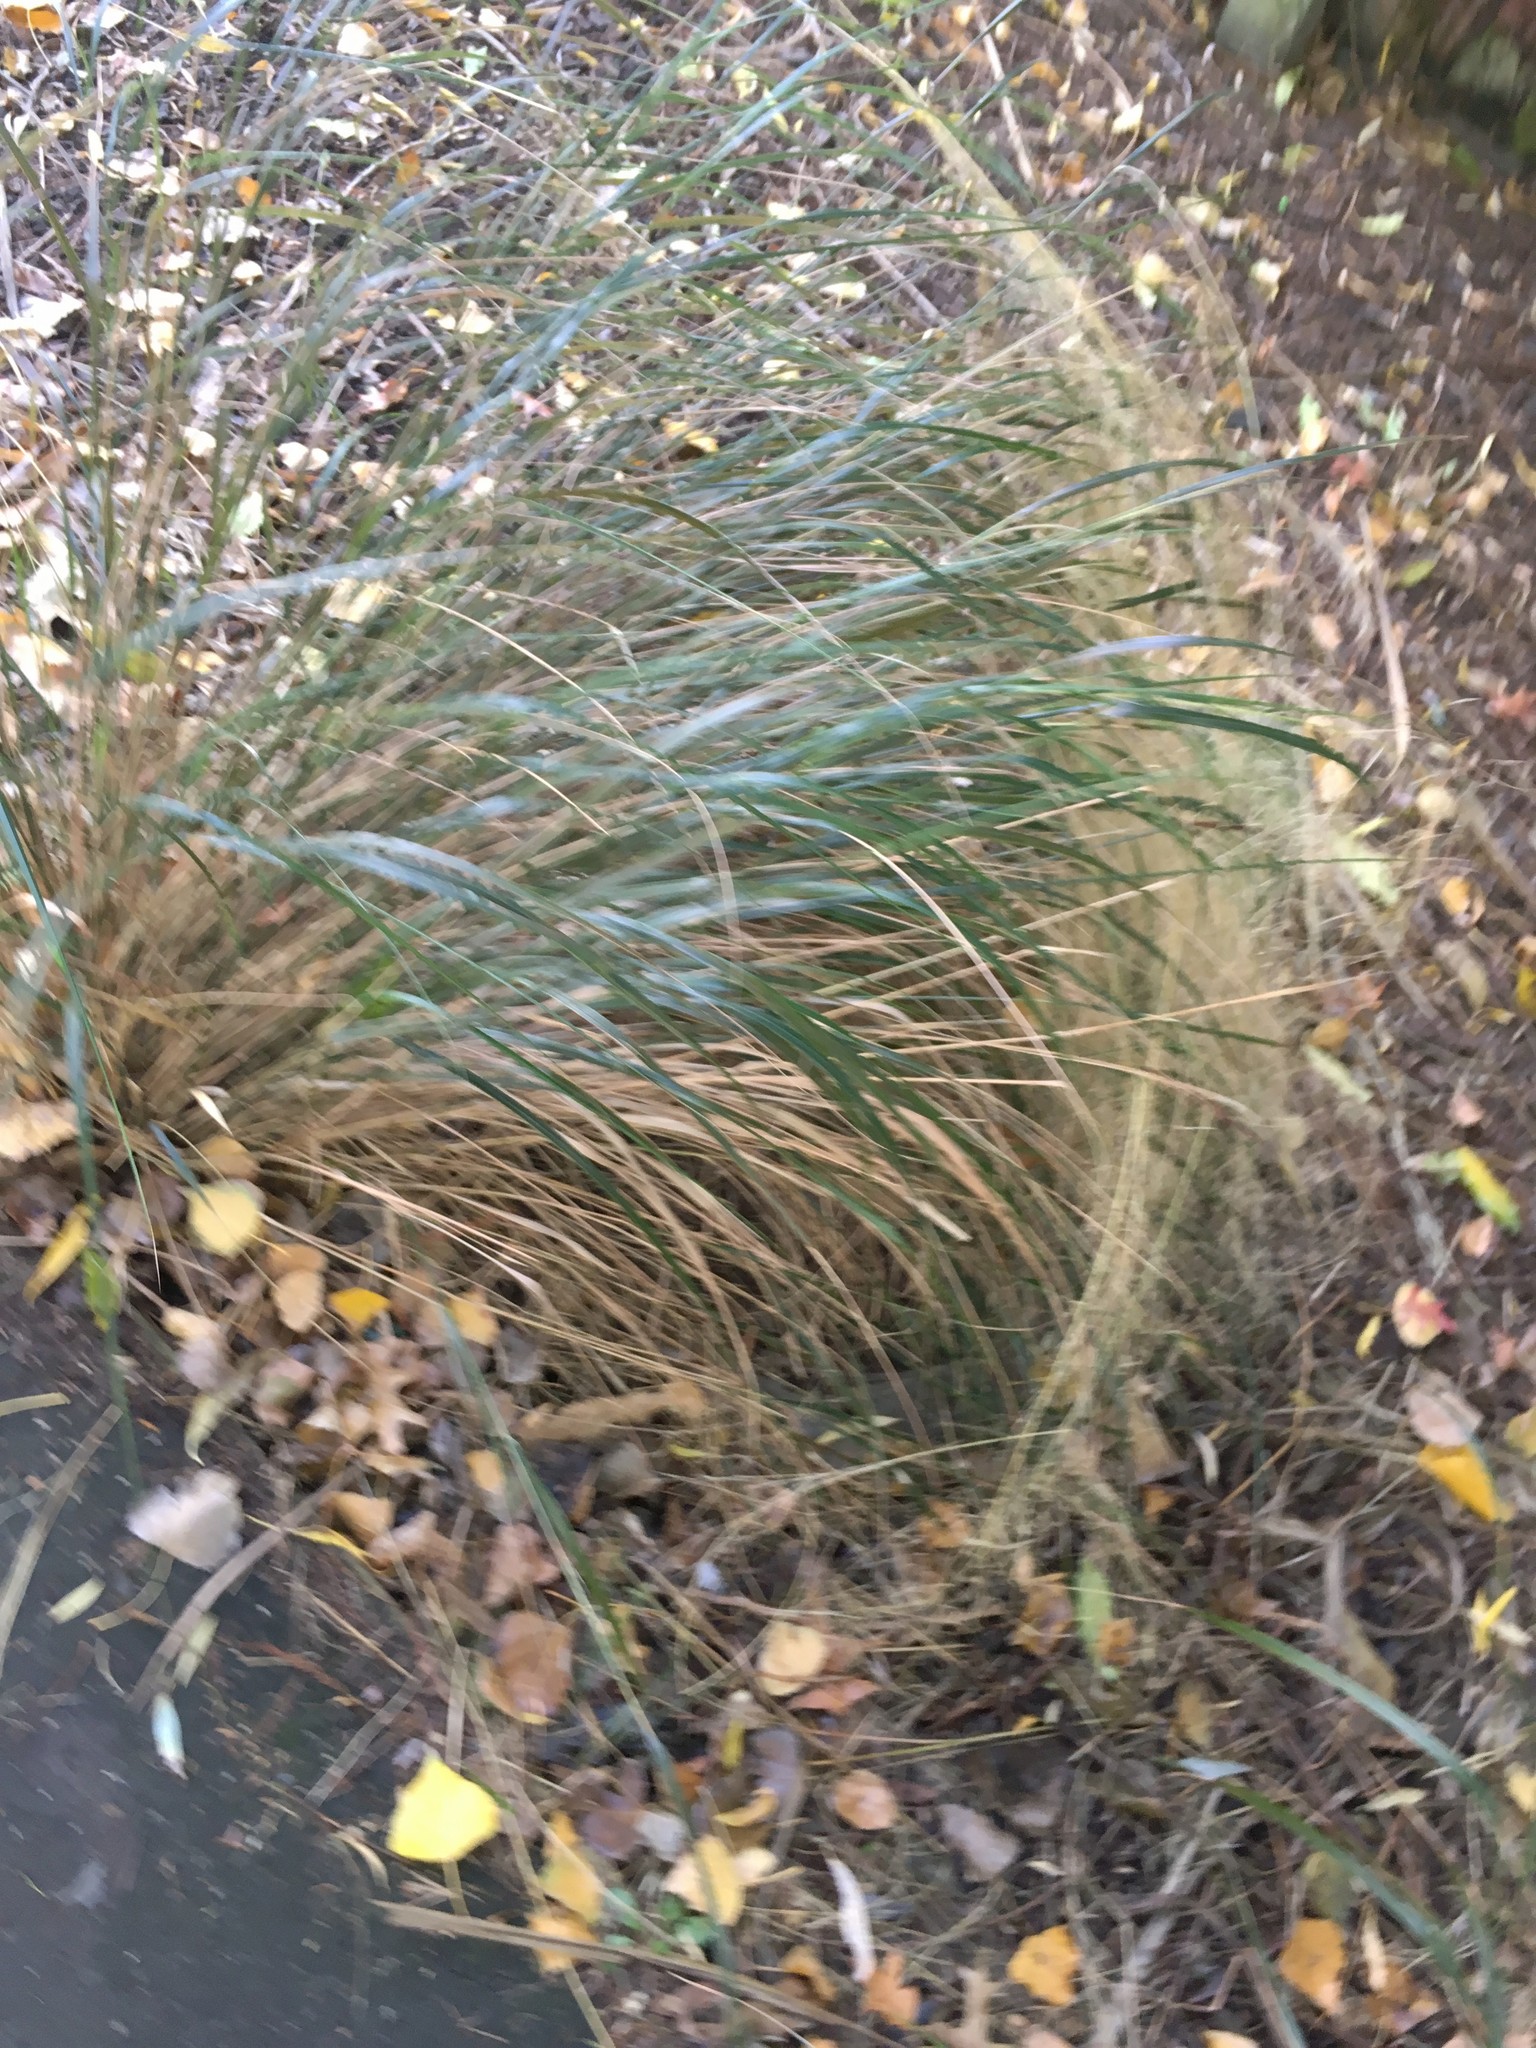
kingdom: Plantae
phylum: Tracheophyta
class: Liliopsida
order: Poales
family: Poaceae
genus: Anemanthele
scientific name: Anemanthele lessoniana
